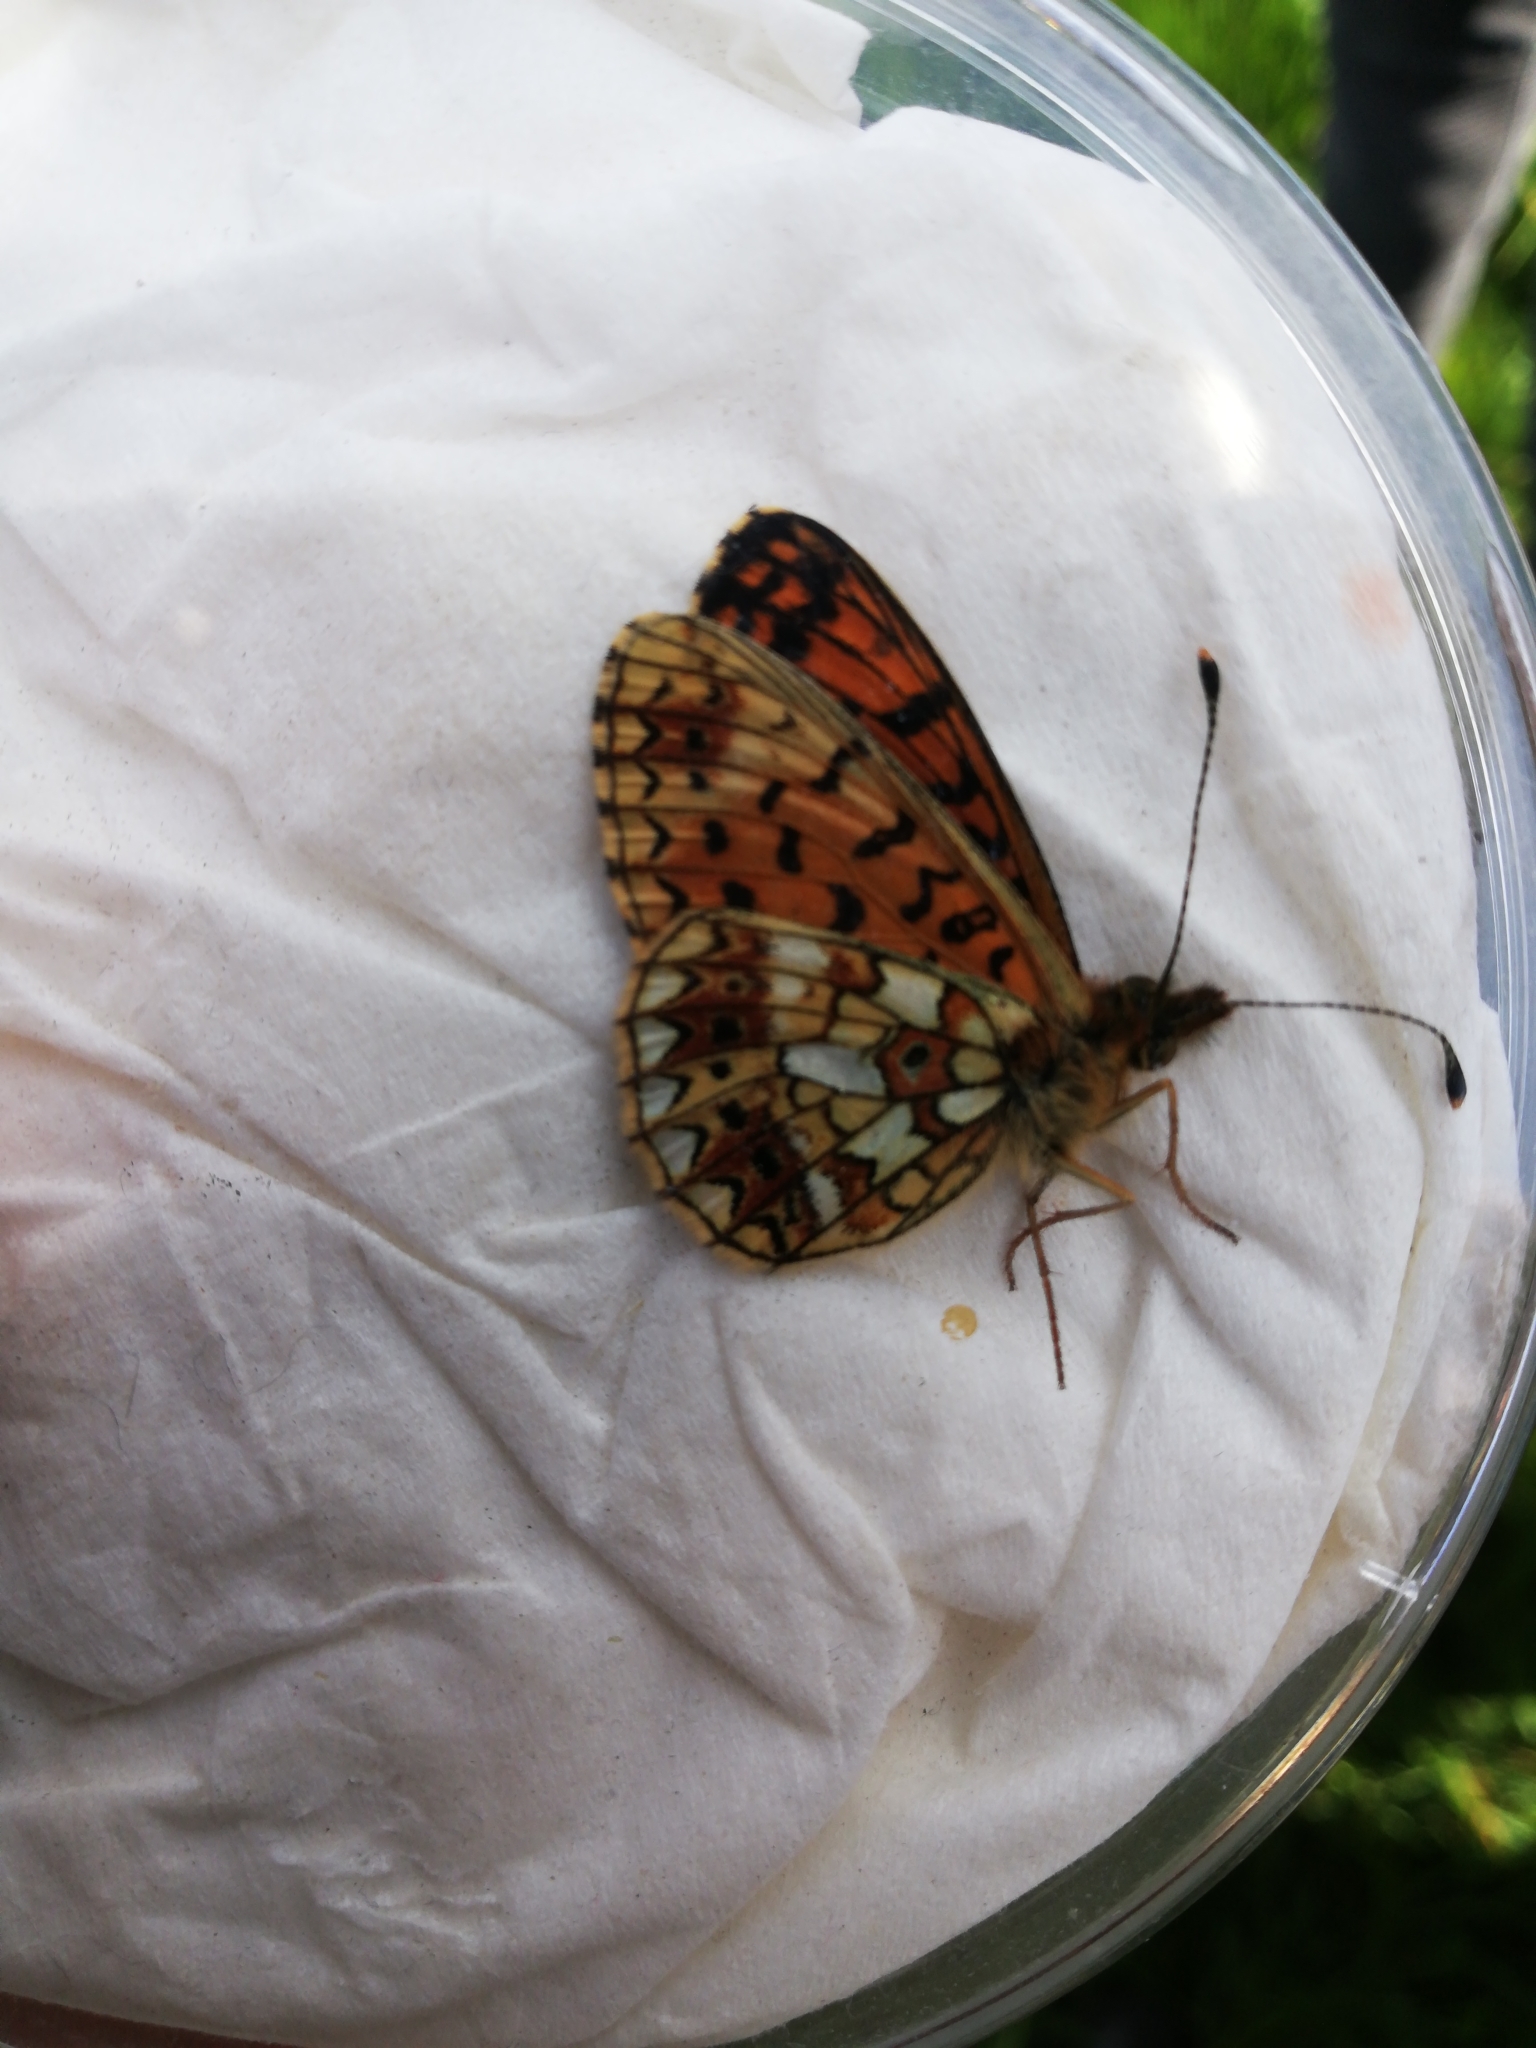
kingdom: Animalia
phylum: Arthropoda
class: Insecta
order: Lepidoptera
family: Nymphalidae
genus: Boloria
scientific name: Boloria selene
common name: Small pearl-bordered fritillary
